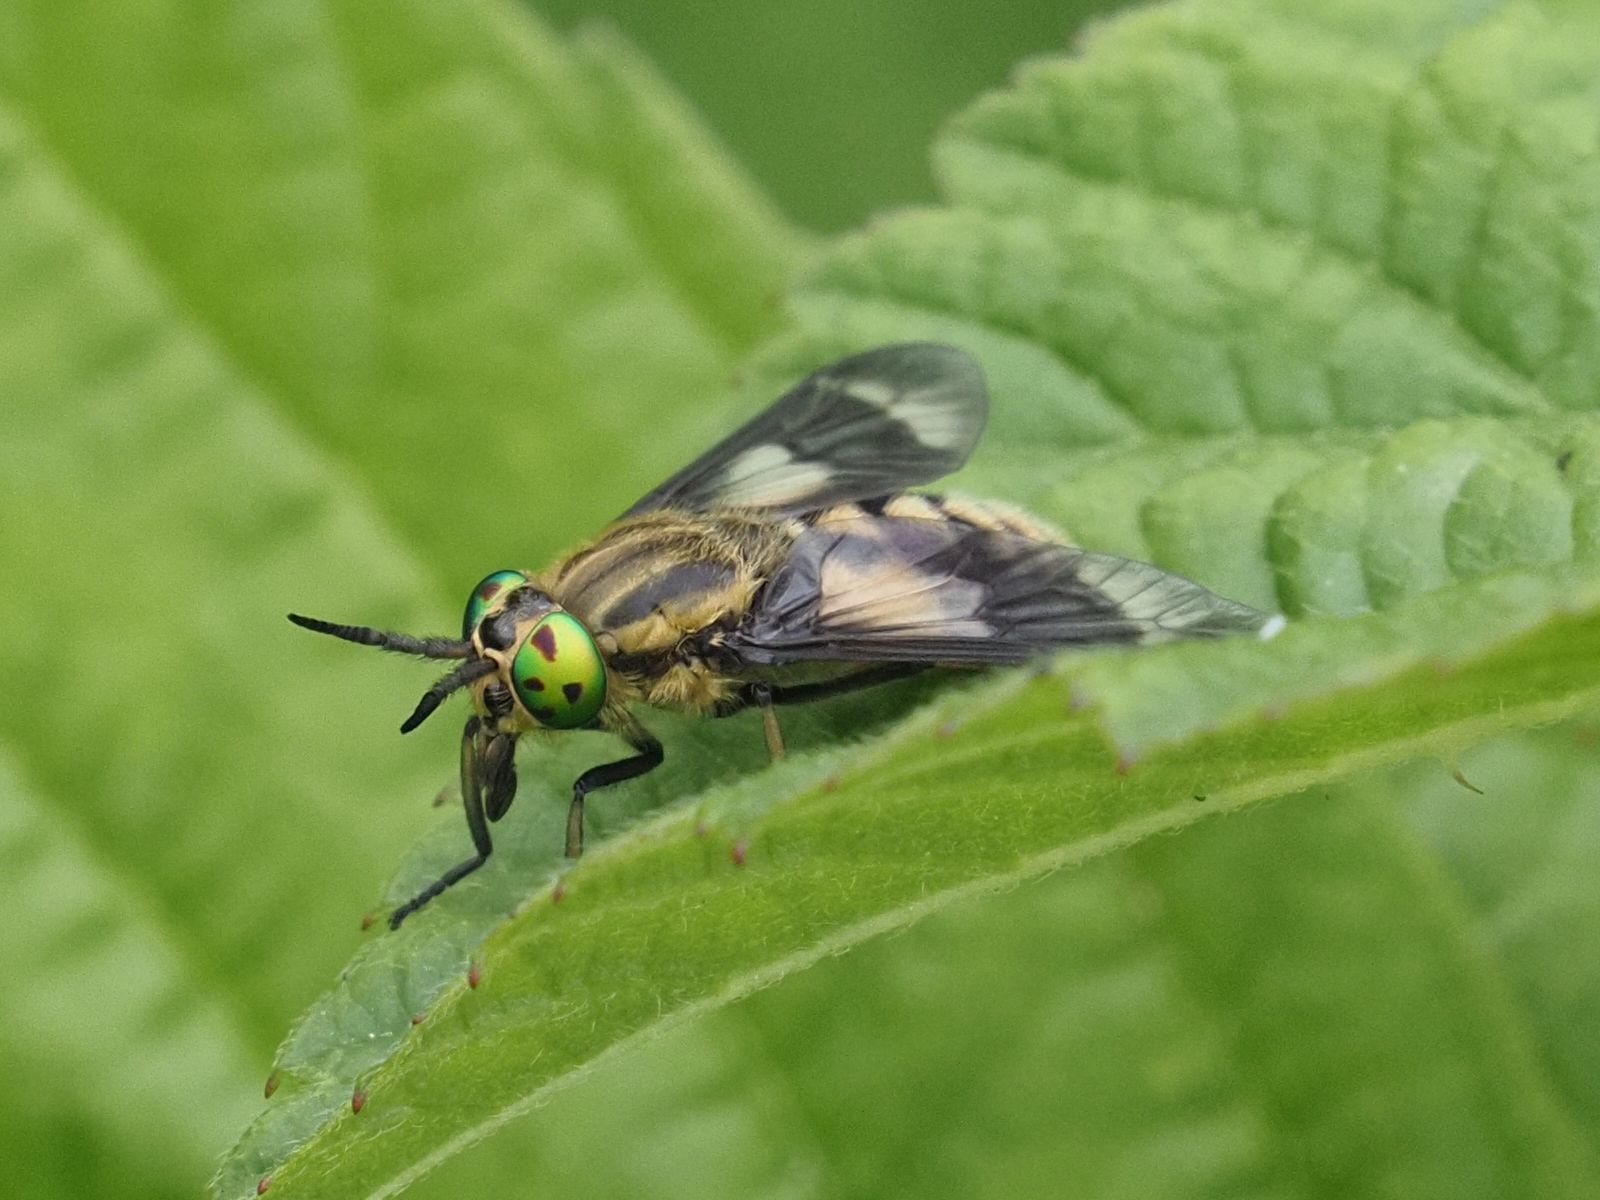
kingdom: Animalia
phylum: Arthropoda
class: Insecta
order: Diptera
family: Tabanidae
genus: Chrysops
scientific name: Chrysops relictus
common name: Twin-lobed deerfly
